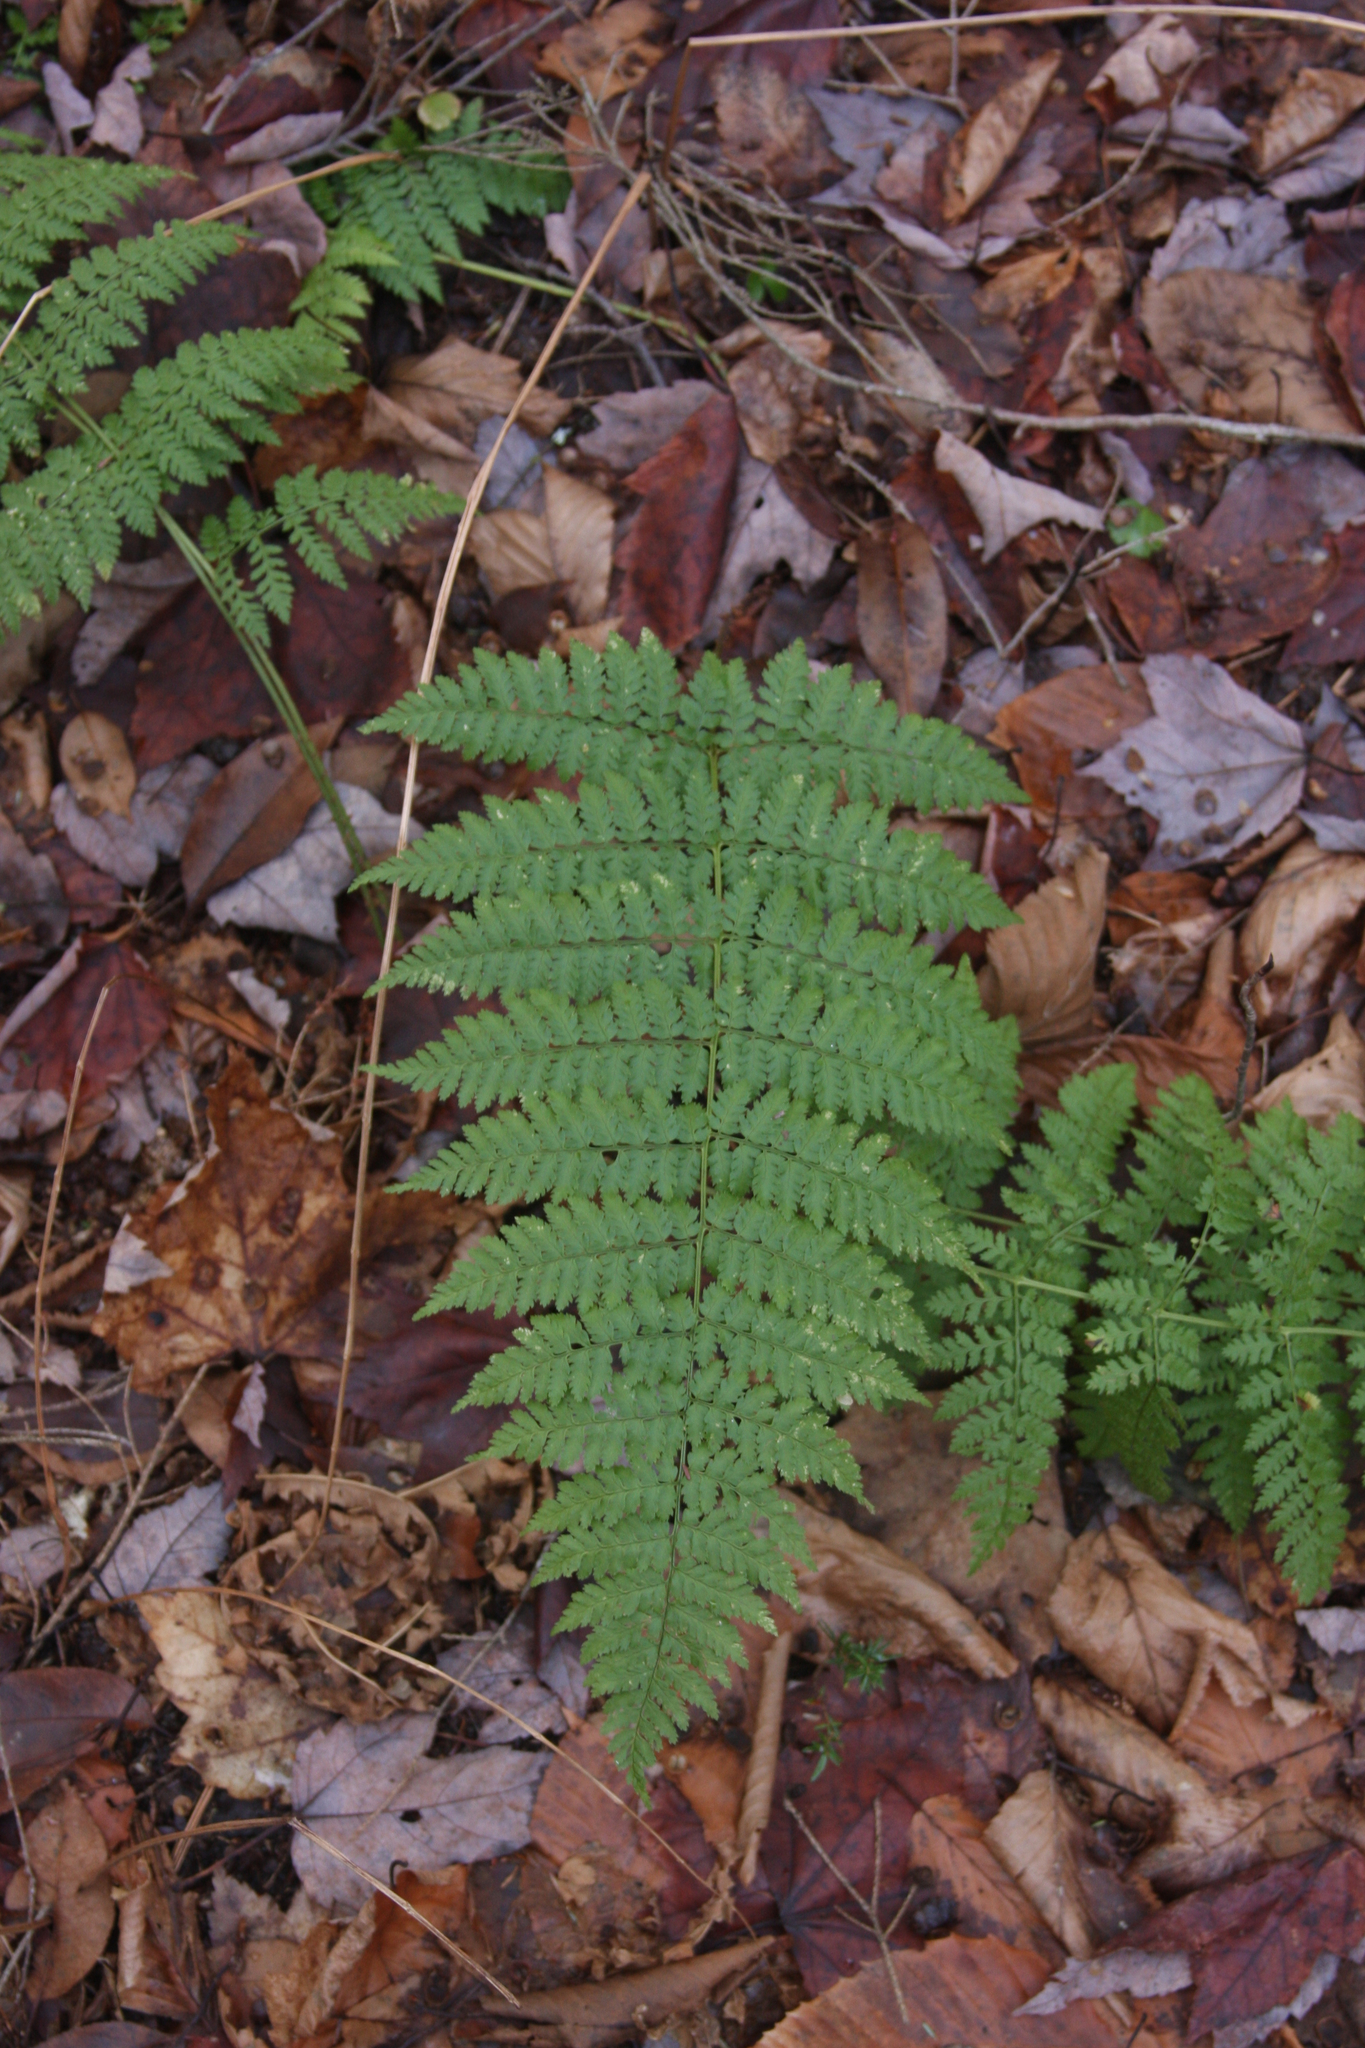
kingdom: Plantae
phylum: Tracheophyta
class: Polypodiopsida
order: Polypodiales
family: Dryopteridaceae
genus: Dryopteris
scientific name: Dryopteris intermedia
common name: Evergreen wood fern
